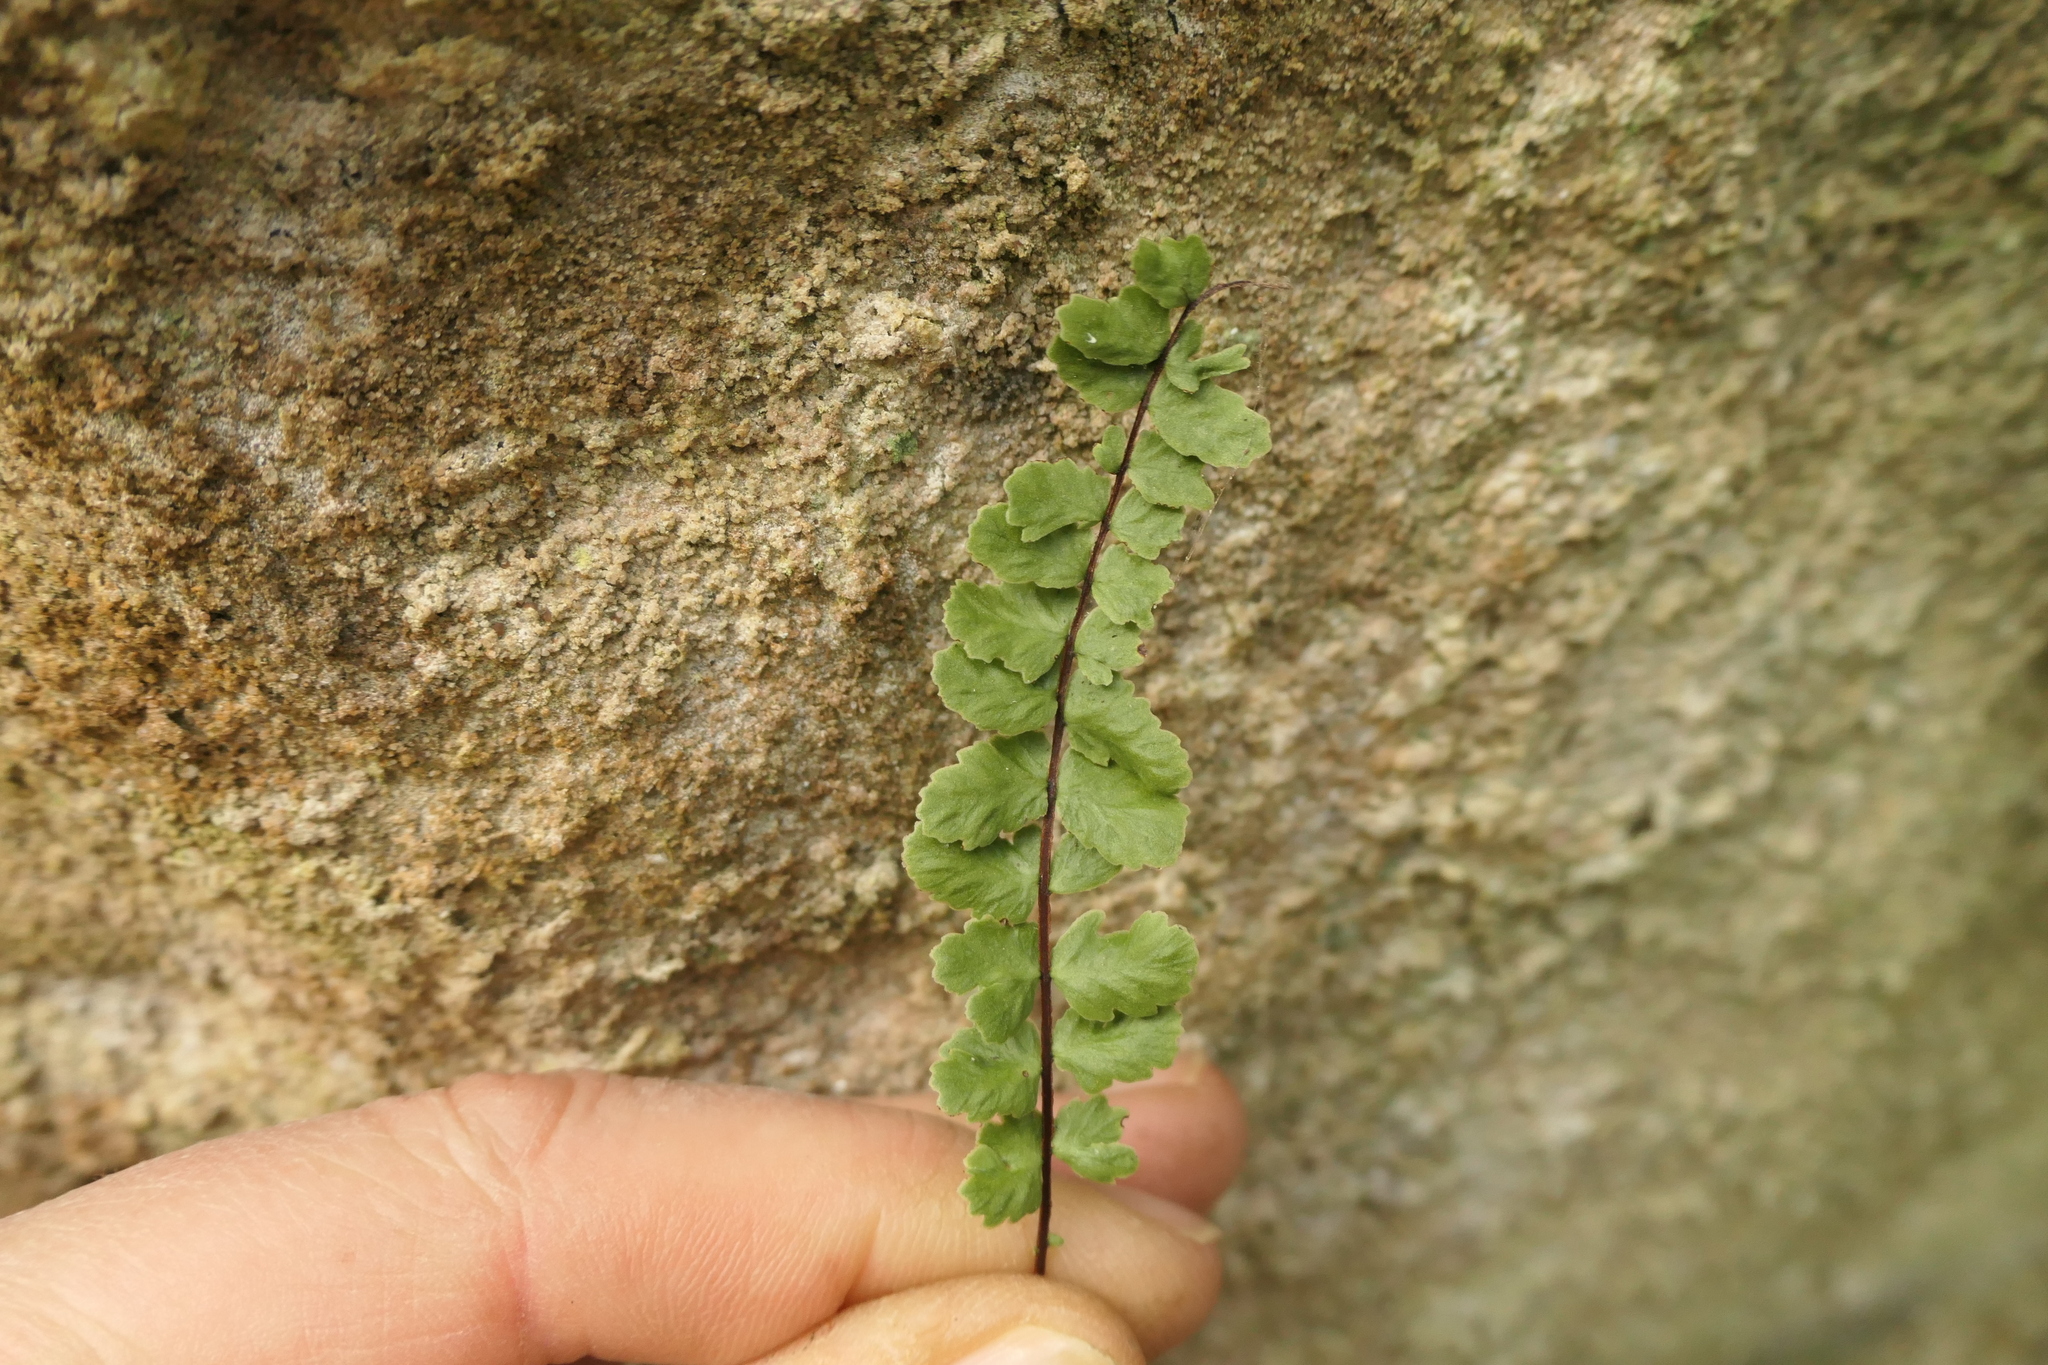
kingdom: Plantae
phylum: Tracheophyta
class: Polypodiopsida
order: Polypodiales
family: Aspleniaceae
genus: Asplenium
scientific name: Asplenium trichomanes
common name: Maidenhair spleenwort
